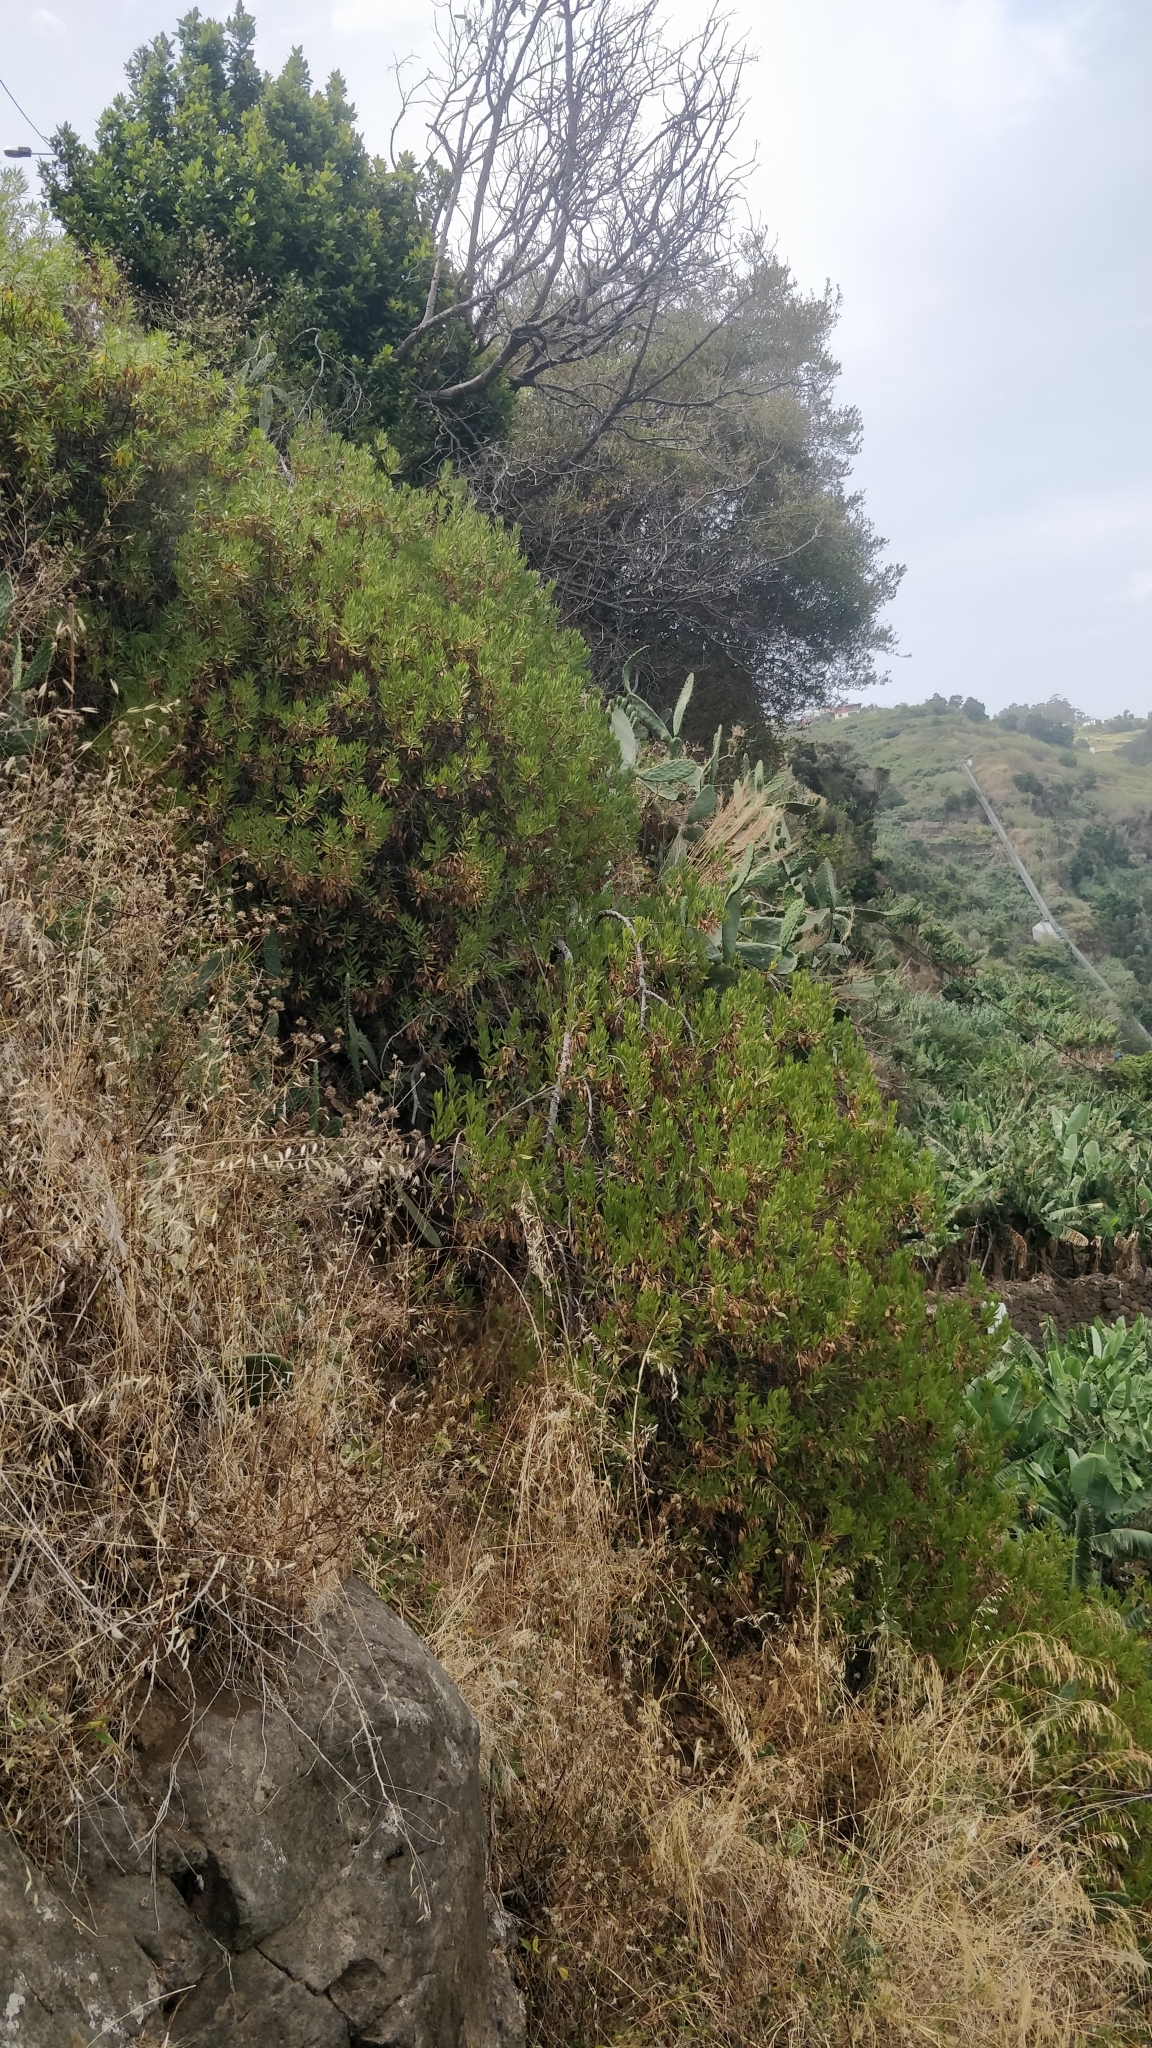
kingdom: Plantae
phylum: Tracheophyta
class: Magnoliopsida
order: Lamiales
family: Plantaginaceae
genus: Globularia
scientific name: Globularia salicina
